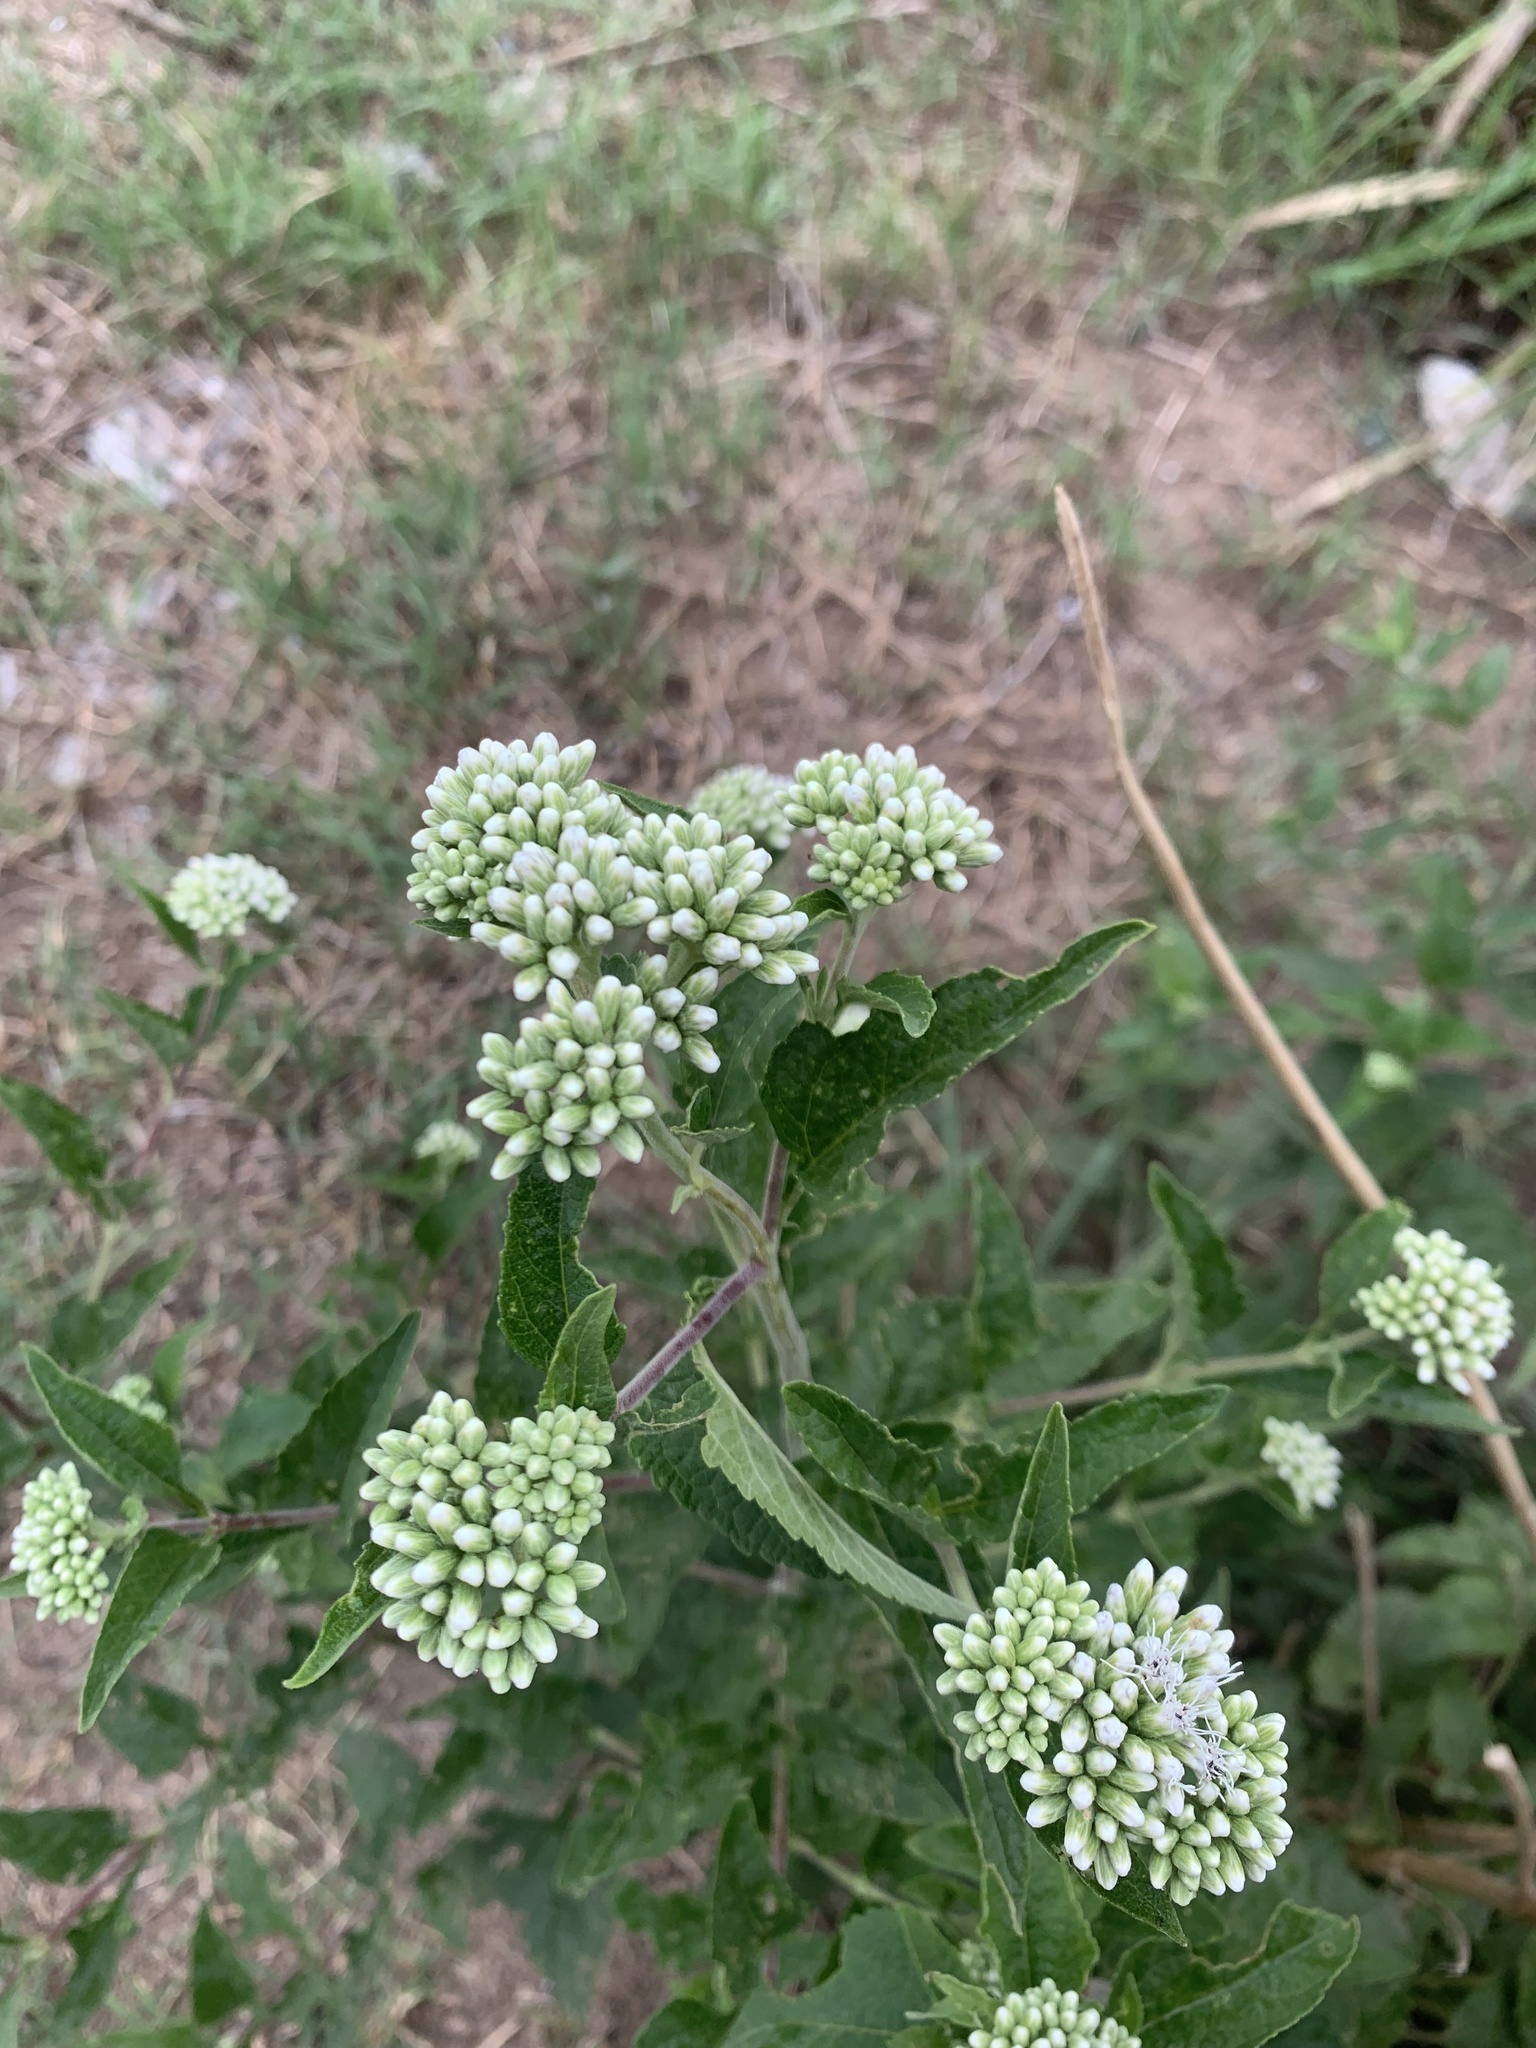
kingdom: Plantae
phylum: Tracheophyta
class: Magnoliopsida
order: Asterales
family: Asteraceae
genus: Austroeupatorium
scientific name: Austroeupatorium inulifolium
